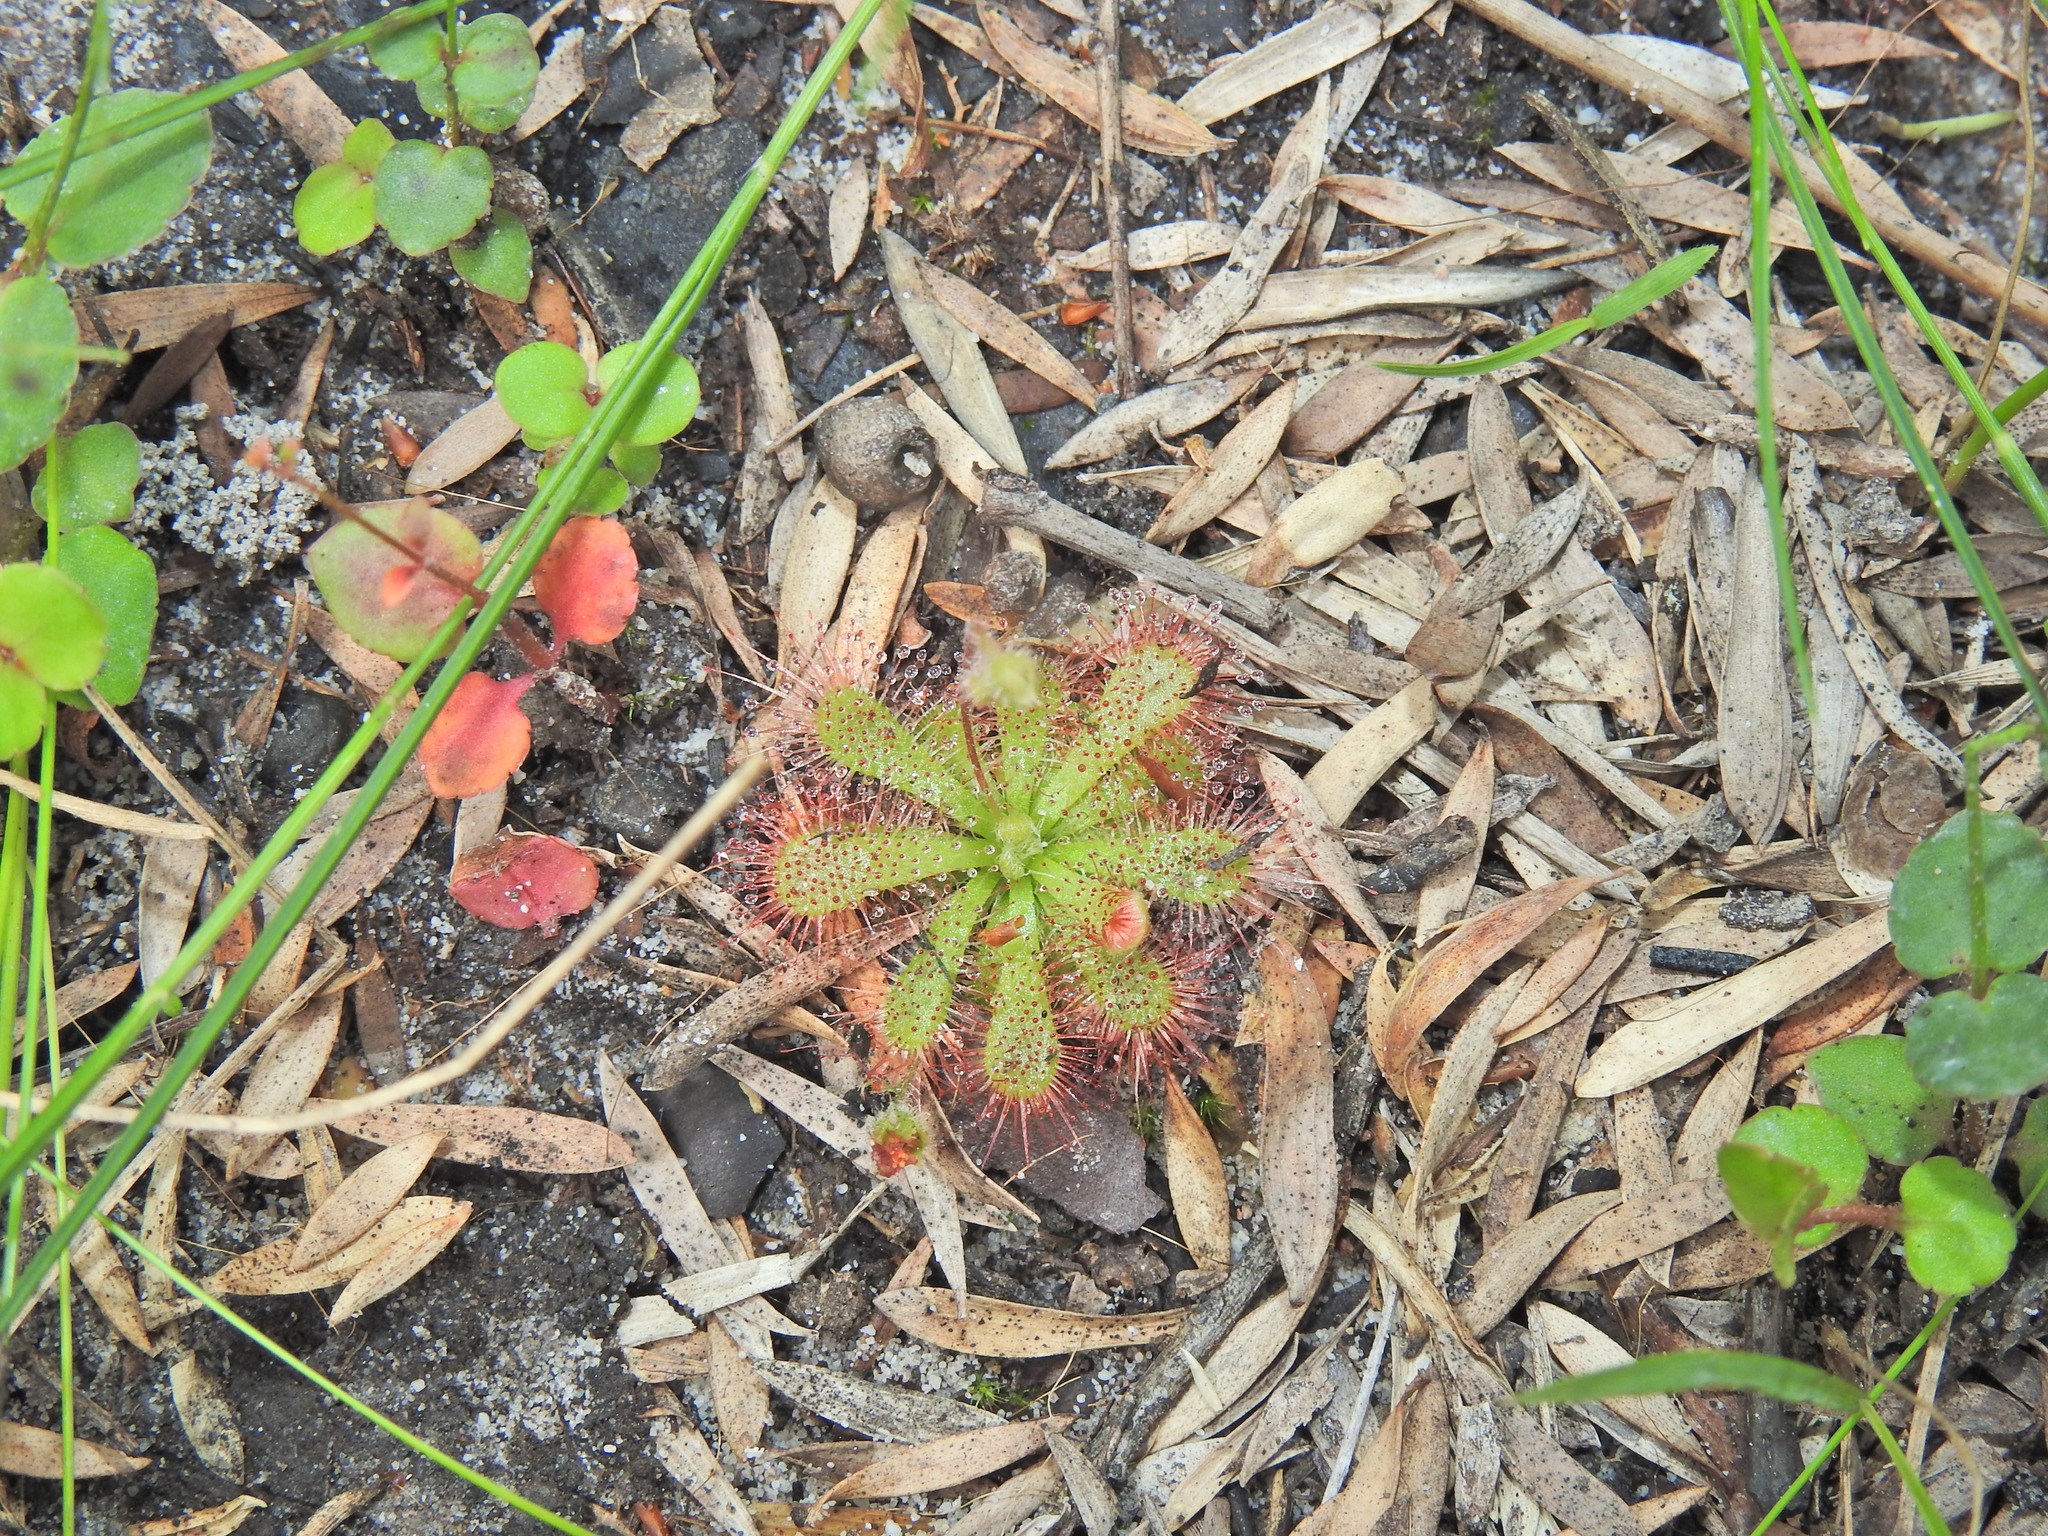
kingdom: Plantae
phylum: Tracheophyta
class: Magnoliopsida
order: Caryophyllales
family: Droseraceae
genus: Drosera
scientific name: Drosera spatulata
